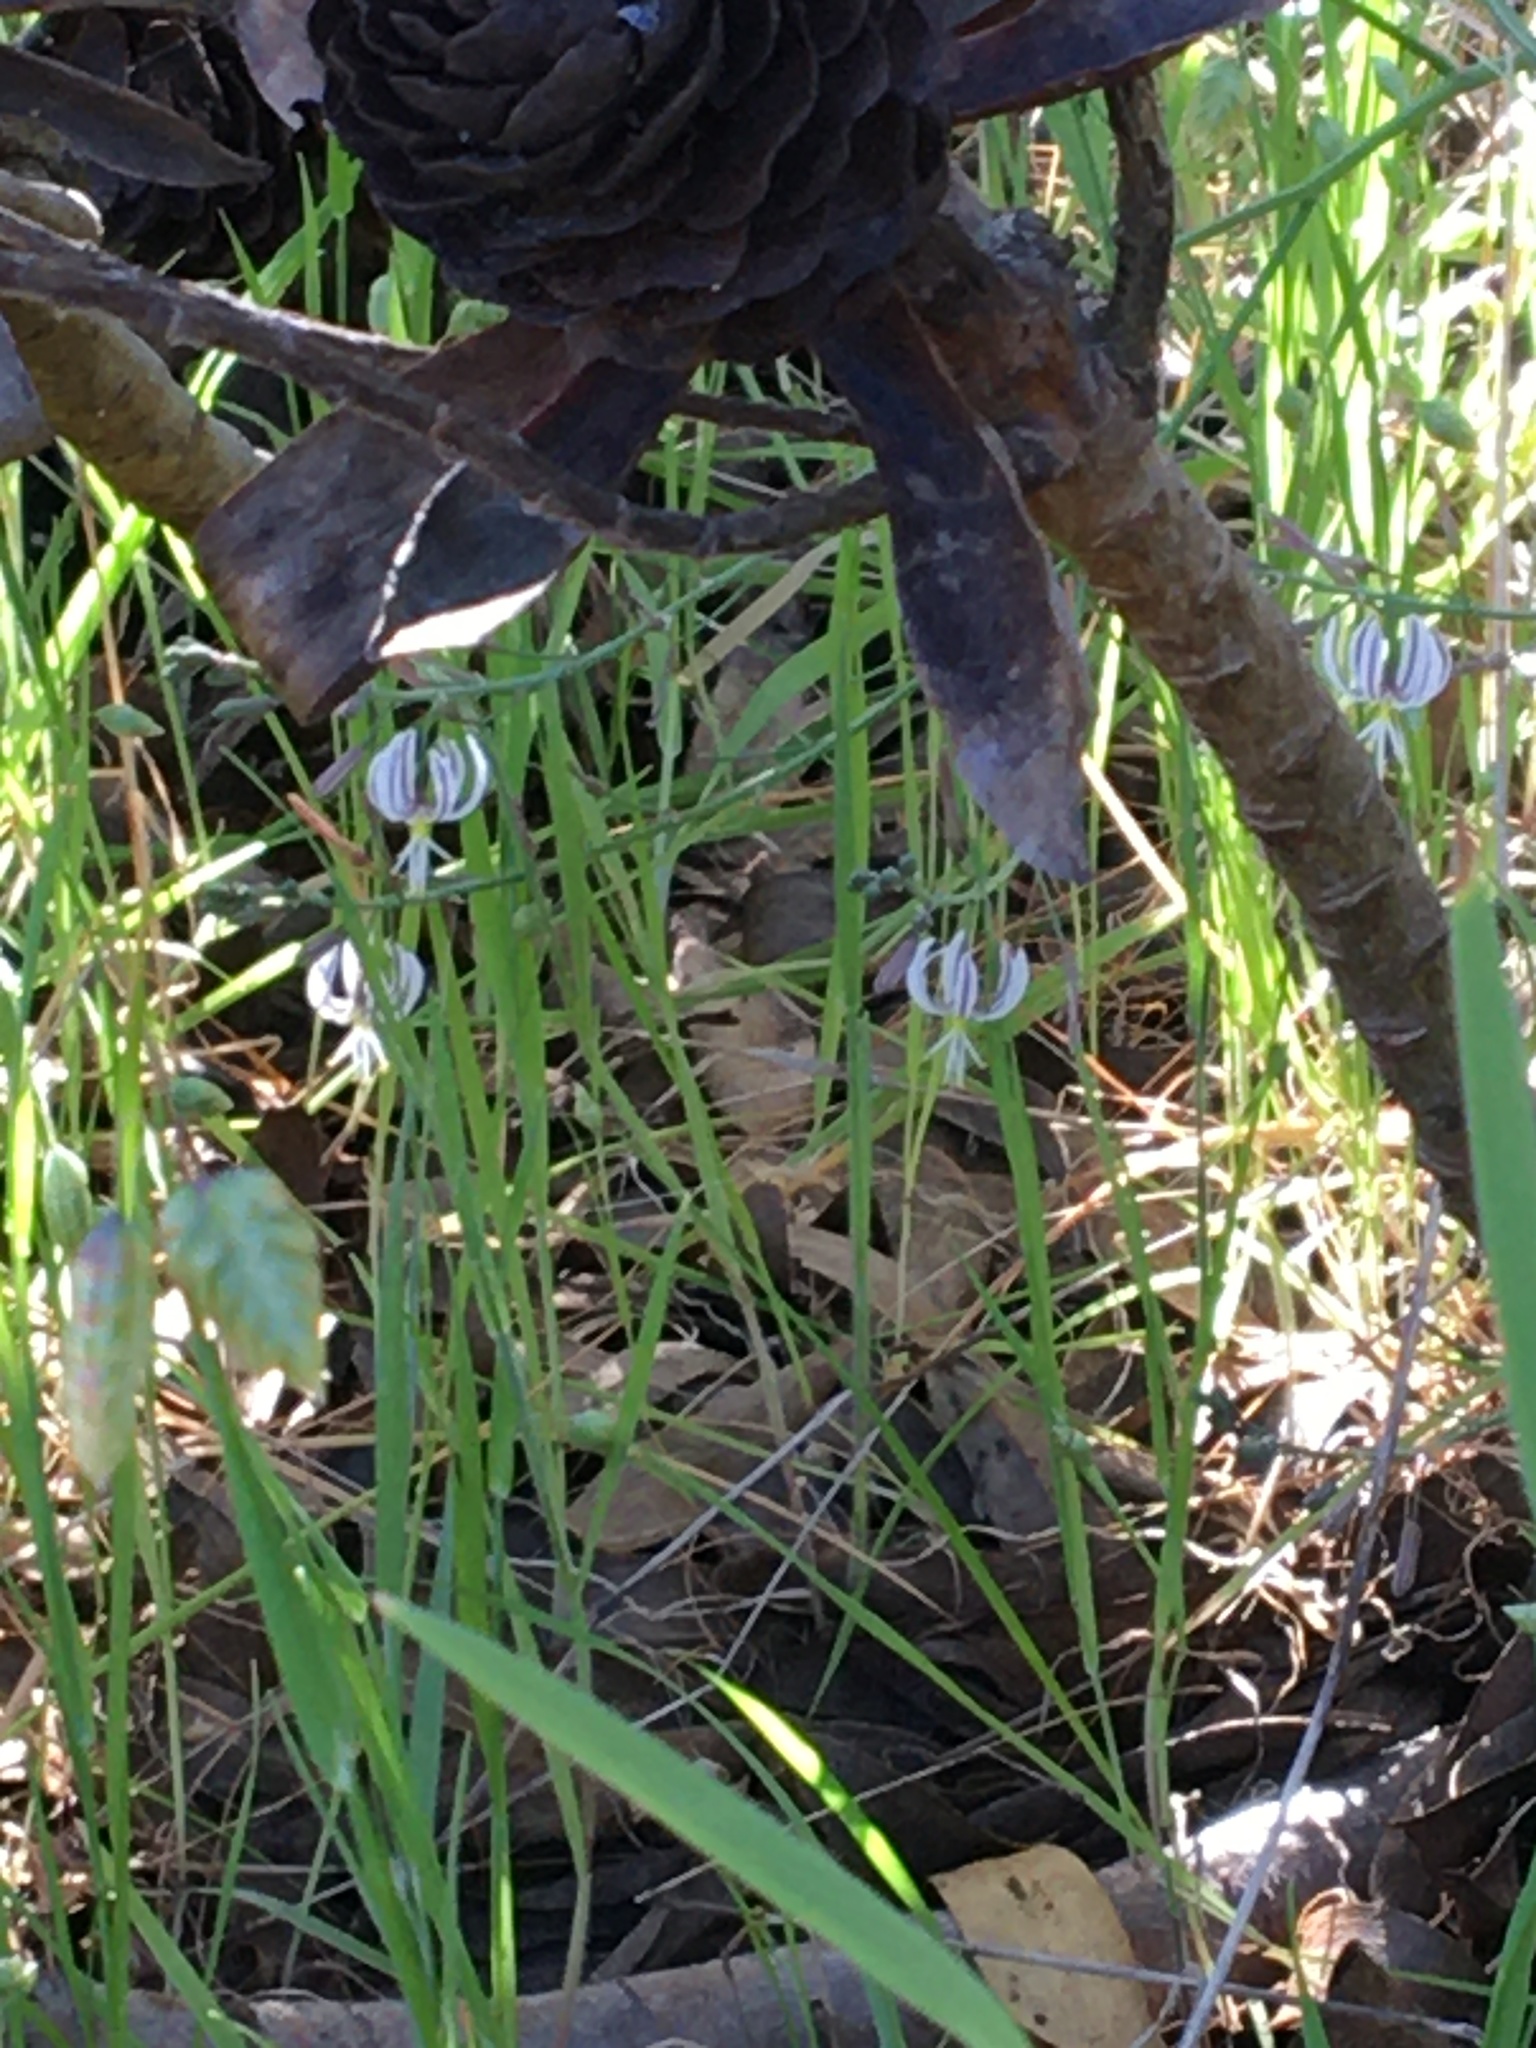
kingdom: Plantae
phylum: Tracheophyta
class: Liliopsida
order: Asparagales
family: Asphodelaceae
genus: Trachyandra
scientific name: Trachyandra revoluta
